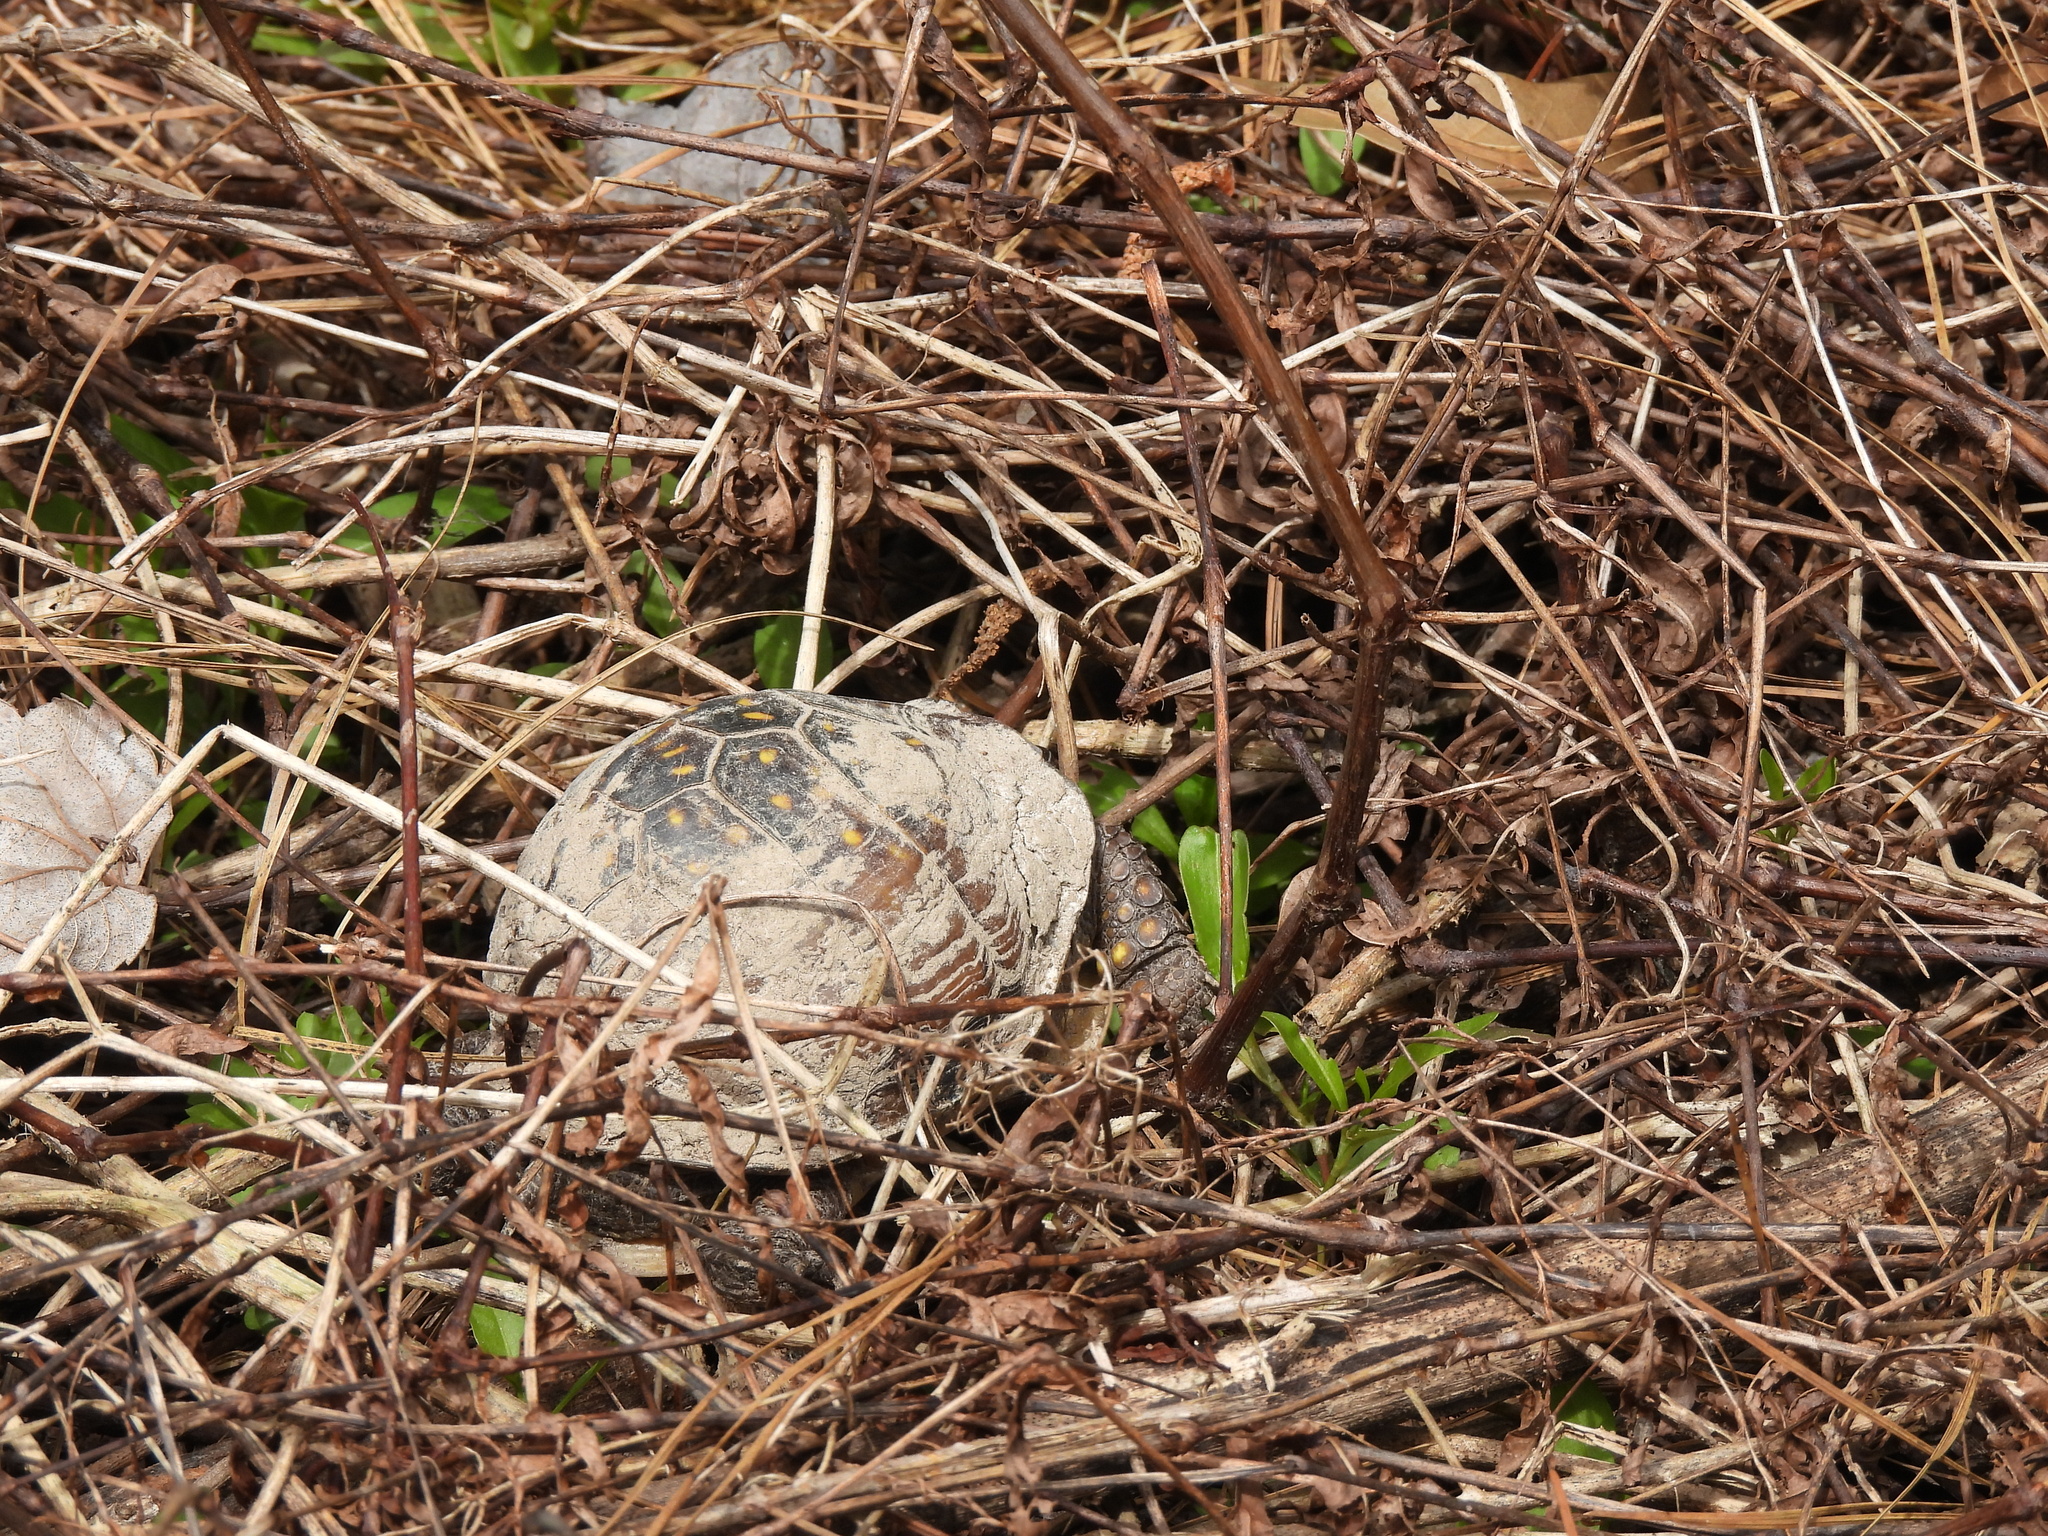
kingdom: Animalia
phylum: Chordata
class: Testudines
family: Emydidae
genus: Terrapene
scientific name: Terrapene carolina
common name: Common box turtle
